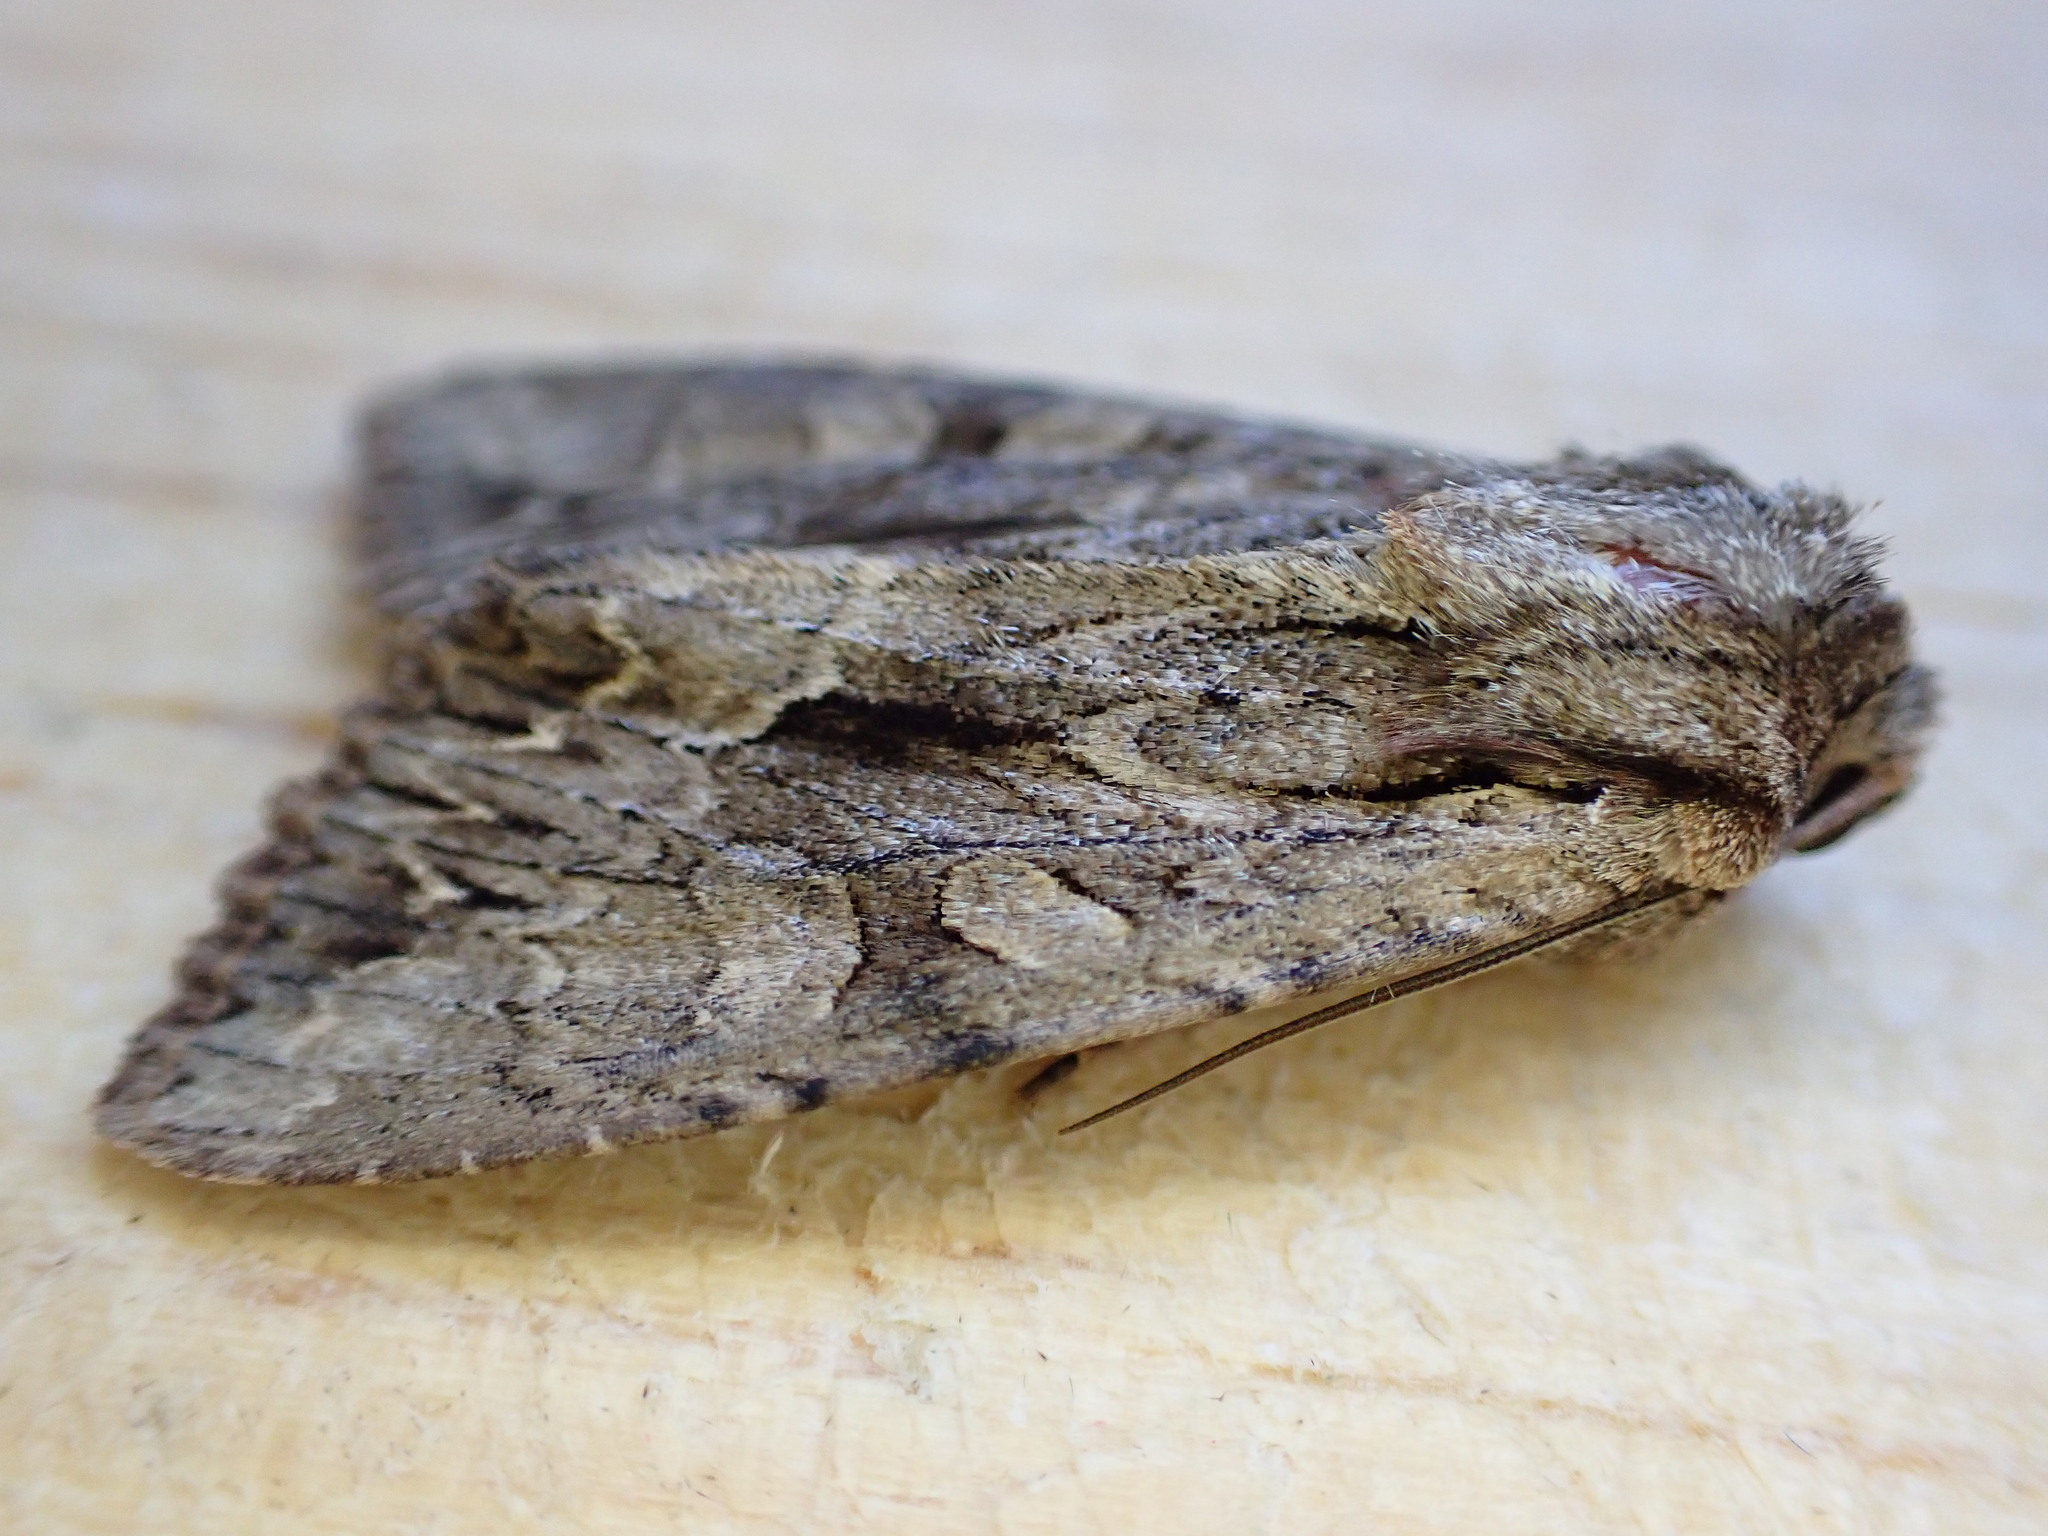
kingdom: Animalia
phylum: Arthropoda
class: Insecta
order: Lepidoptera
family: Noctuidae
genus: Apamea
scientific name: Apamea monoglypha
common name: Dark arches
